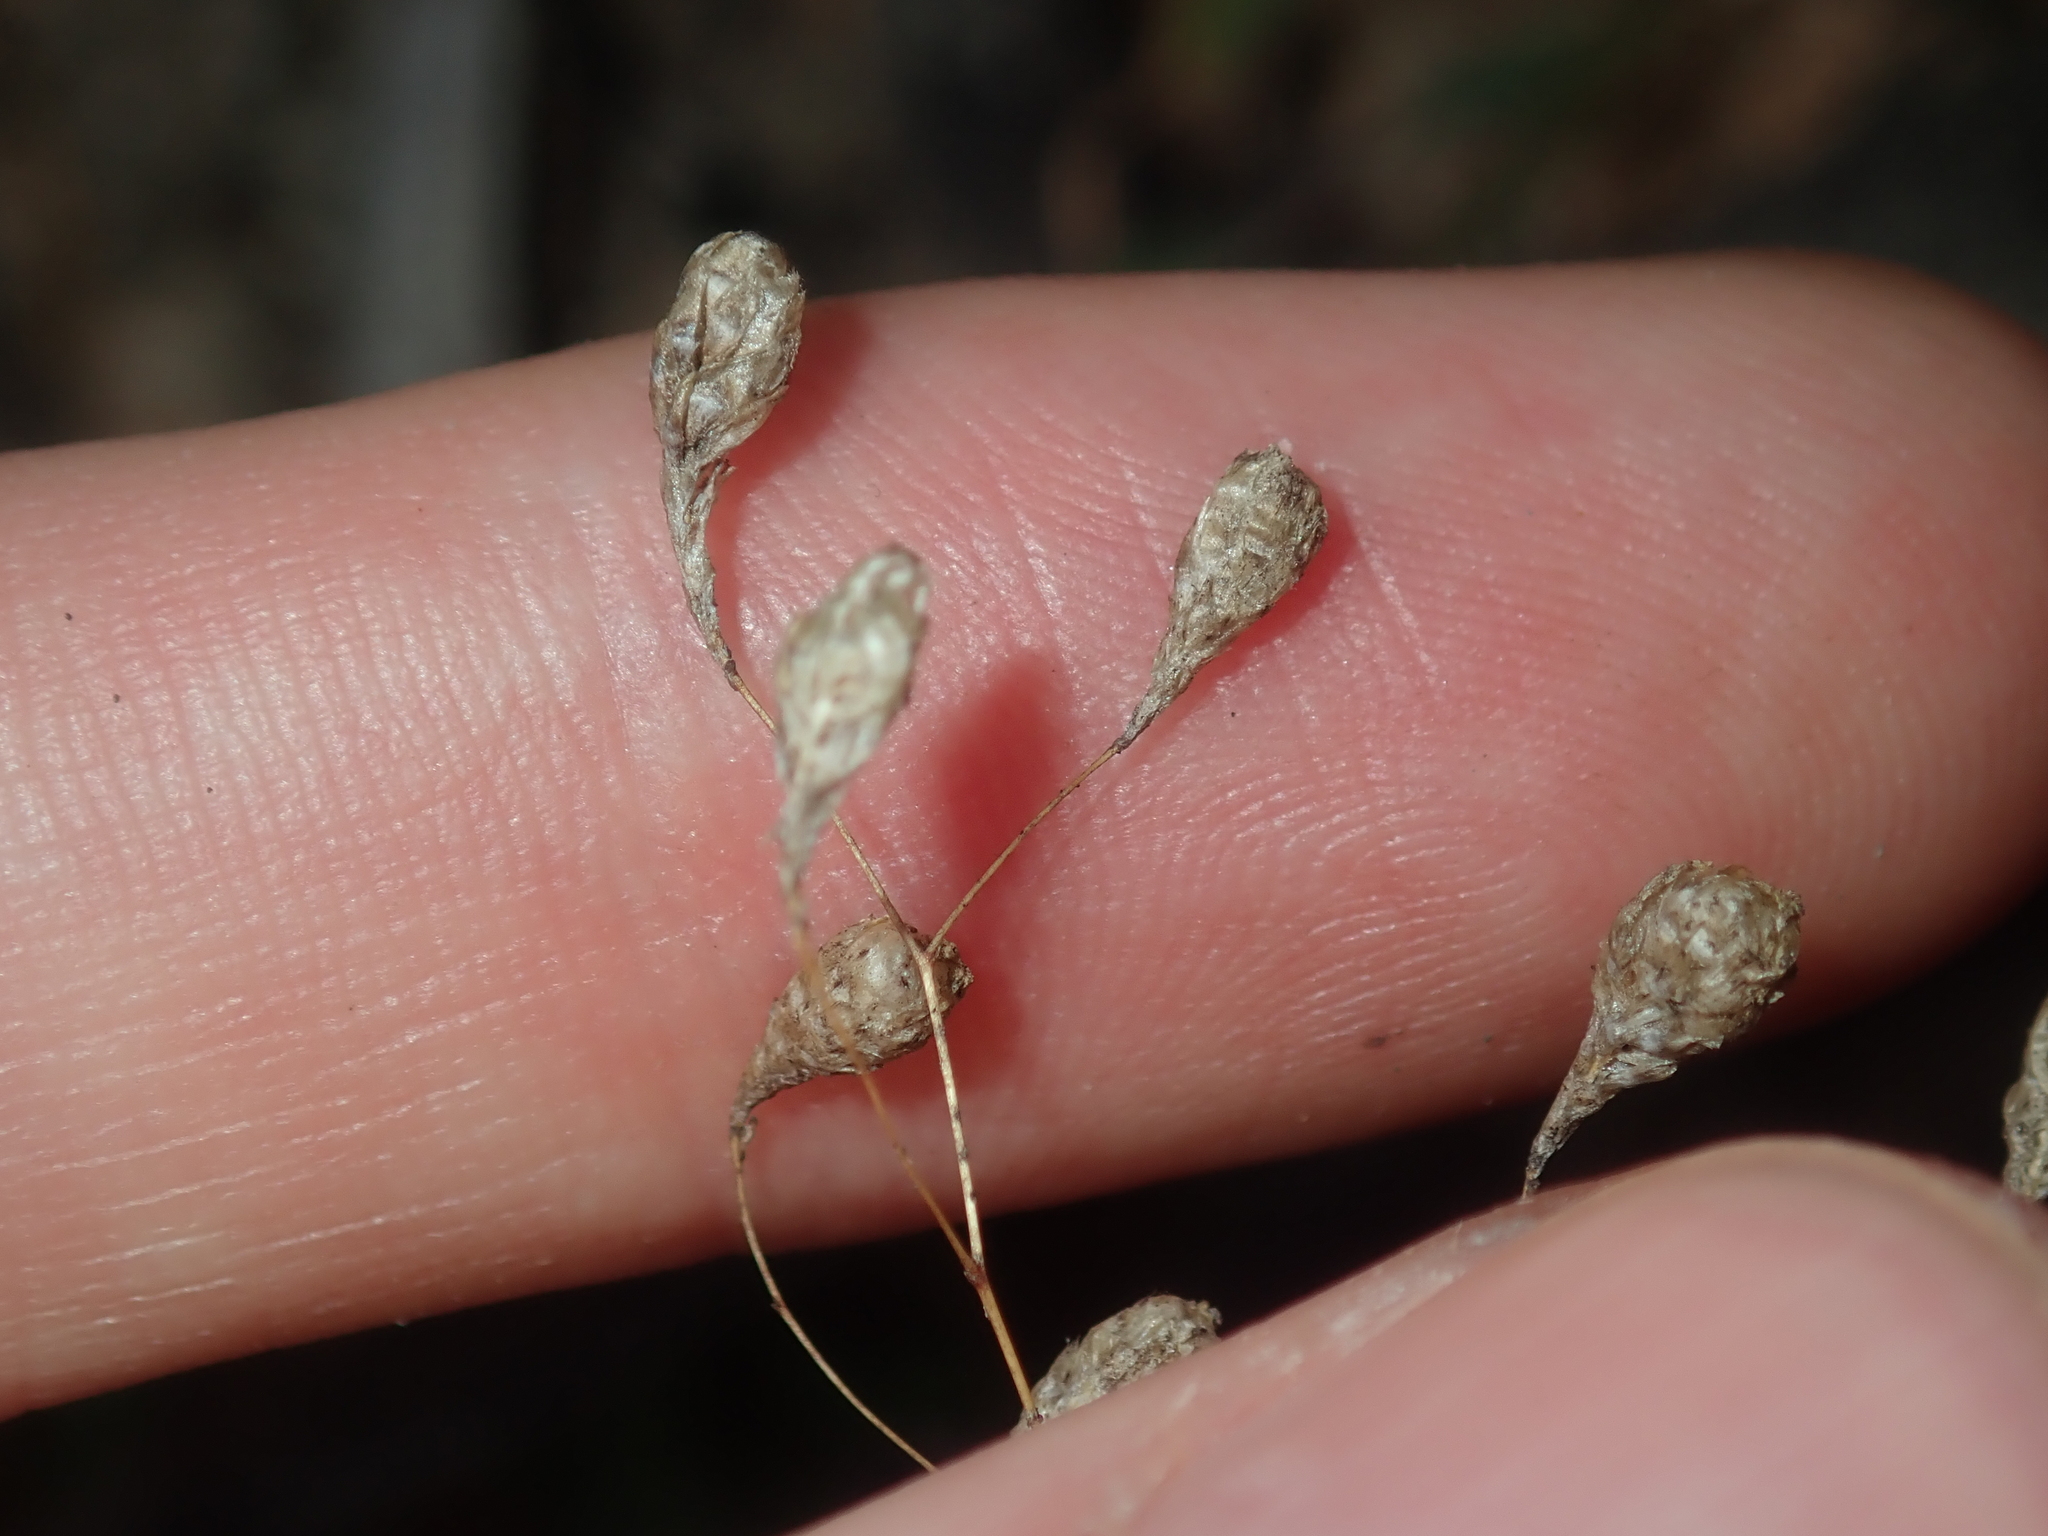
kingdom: Plantae
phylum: Tracheophyta
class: Magnoliopsida
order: Asterales
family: Asteraceae
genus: Gnephosis
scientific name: Gnephosis tenuissima
